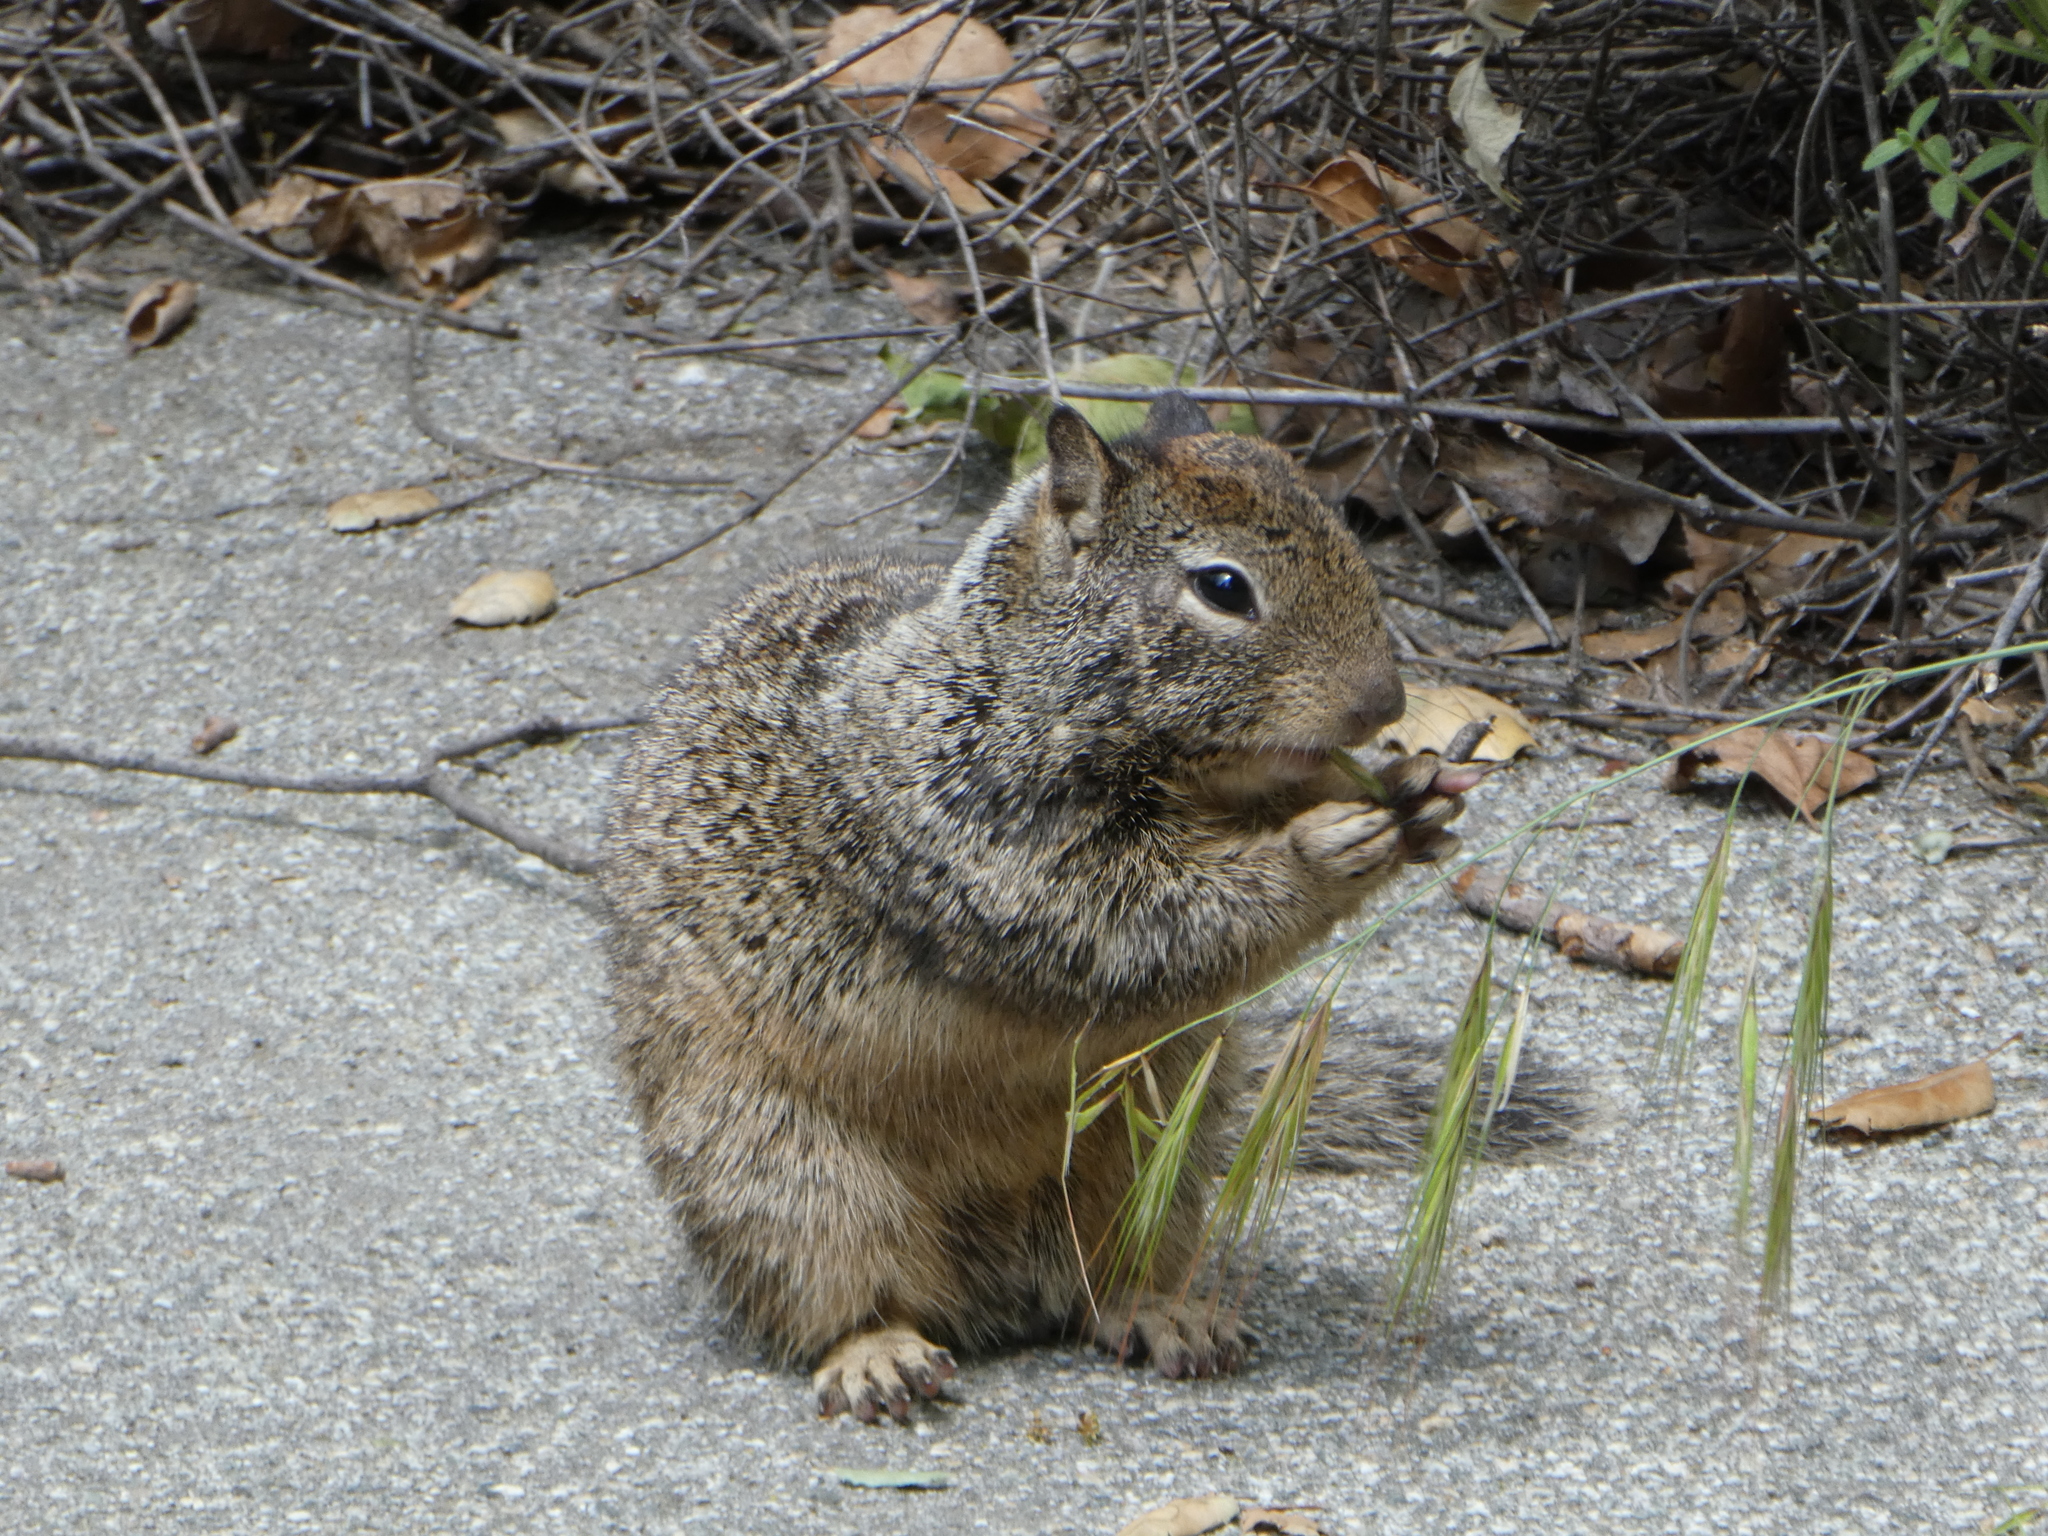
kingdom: Animalia
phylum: Chordata
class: Mammalia
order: Rodentia
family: Sciuridae
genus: Otospermophilus
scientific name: Otospermophilus beecheyi
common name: California ground squirrel
